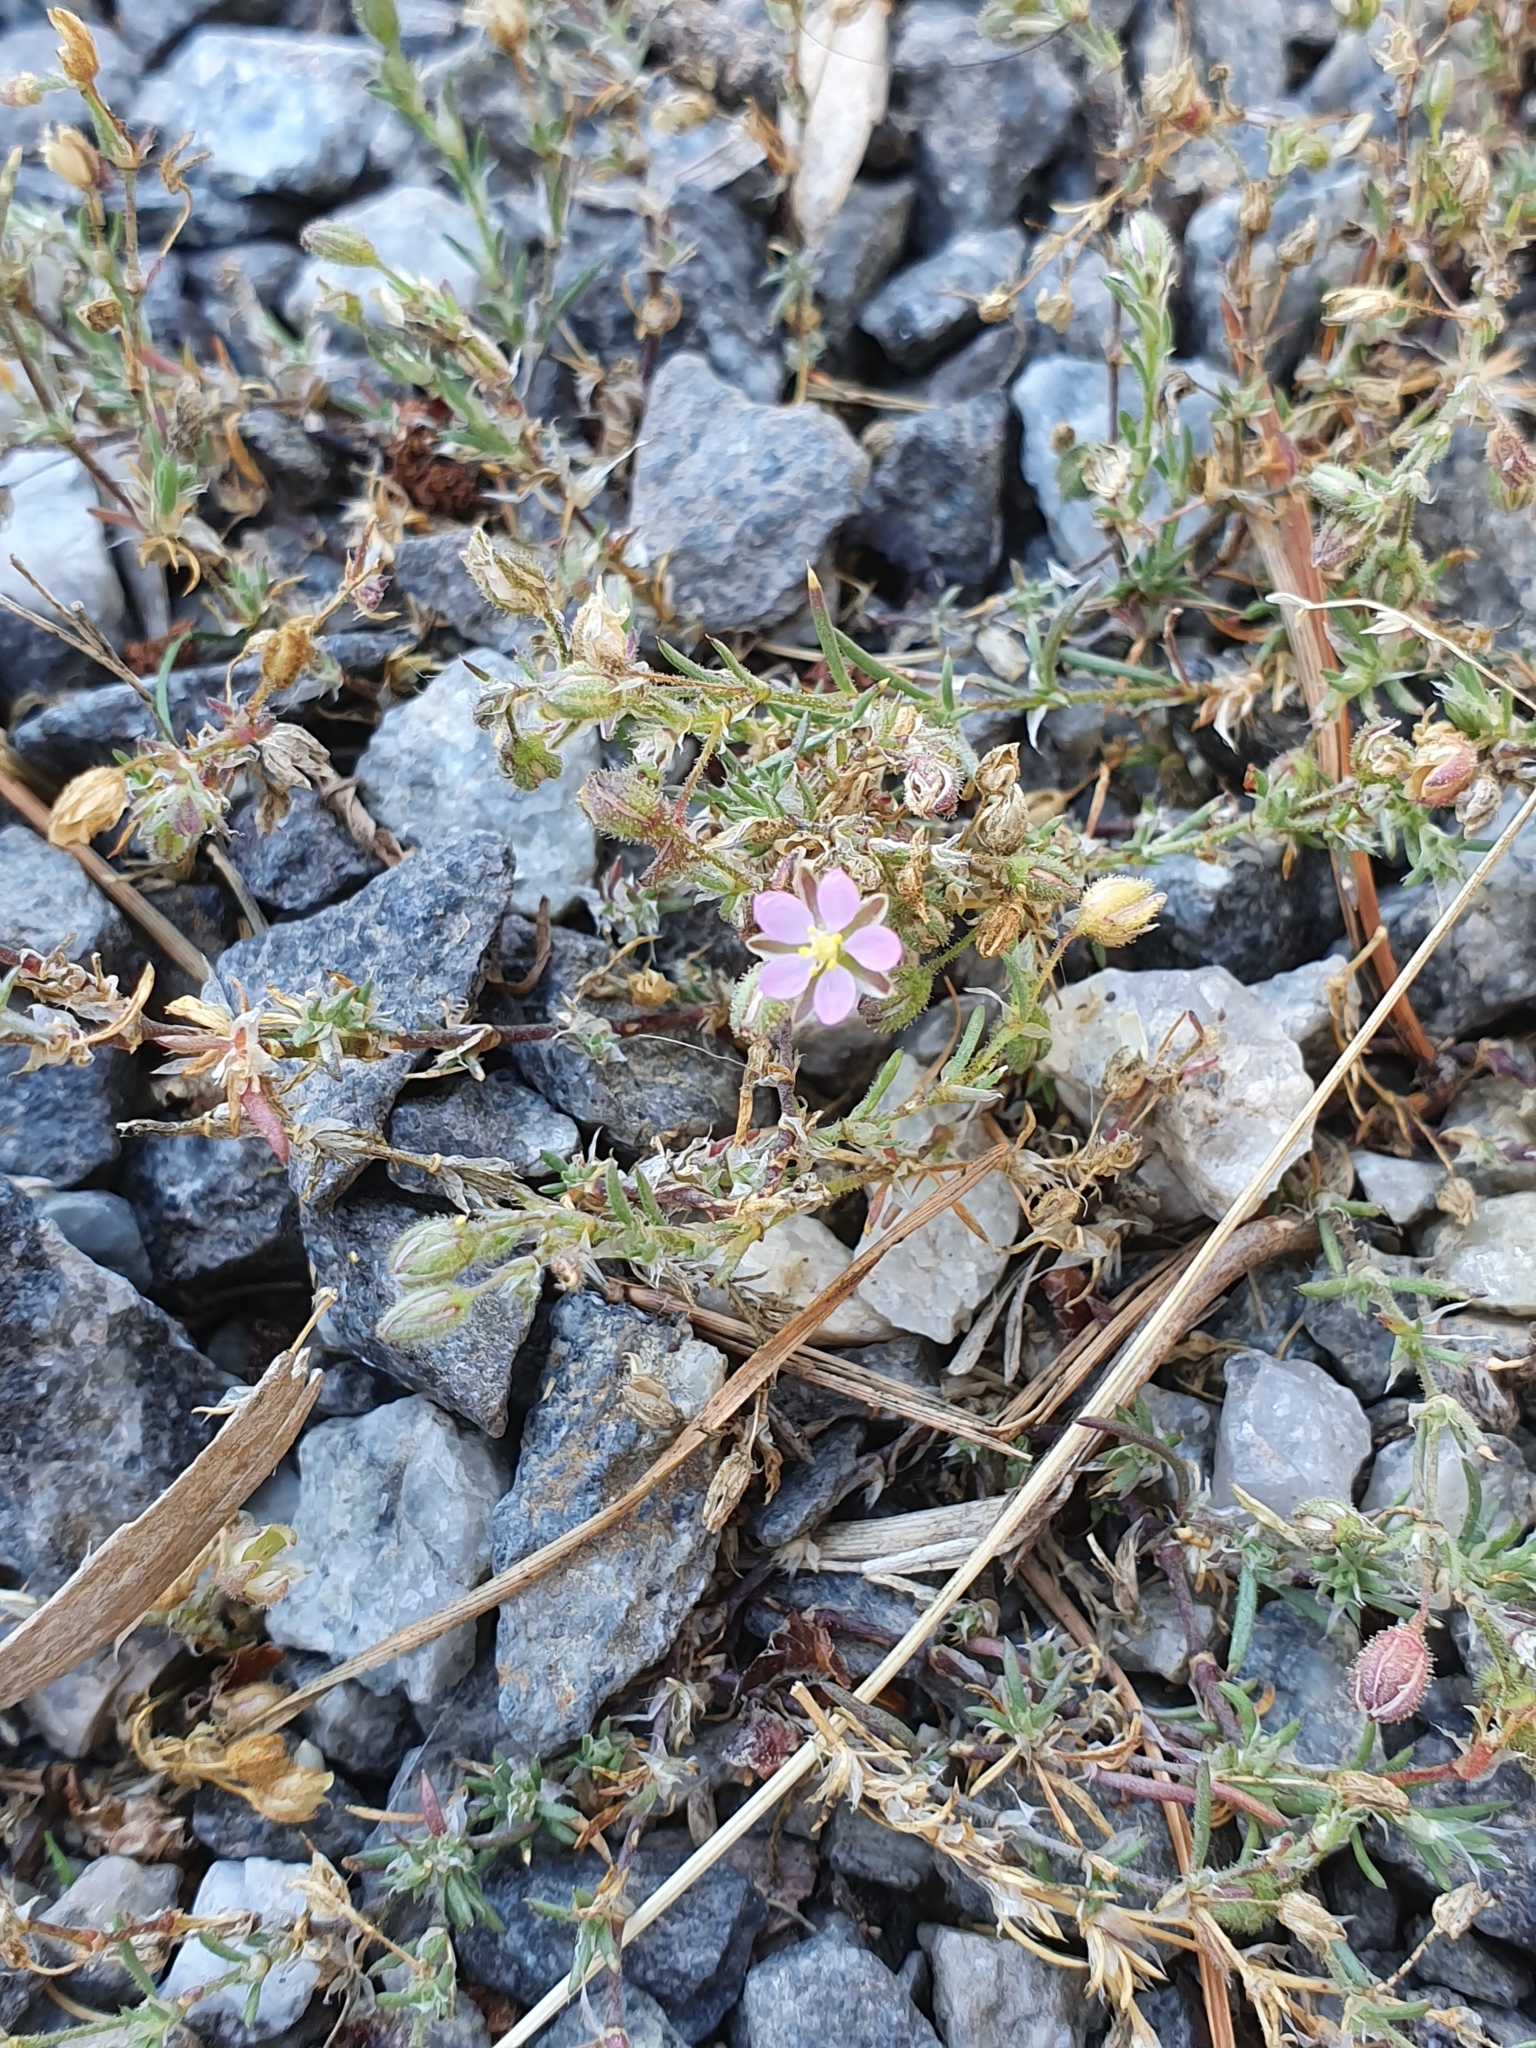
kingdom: Plantae
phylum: Tracheophyta
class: Magnoliopsida
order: Caryophyllales
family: Caryophyllaceae
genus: Spergularia
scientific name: Spergularia rubra
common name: Red sand-spurrey
